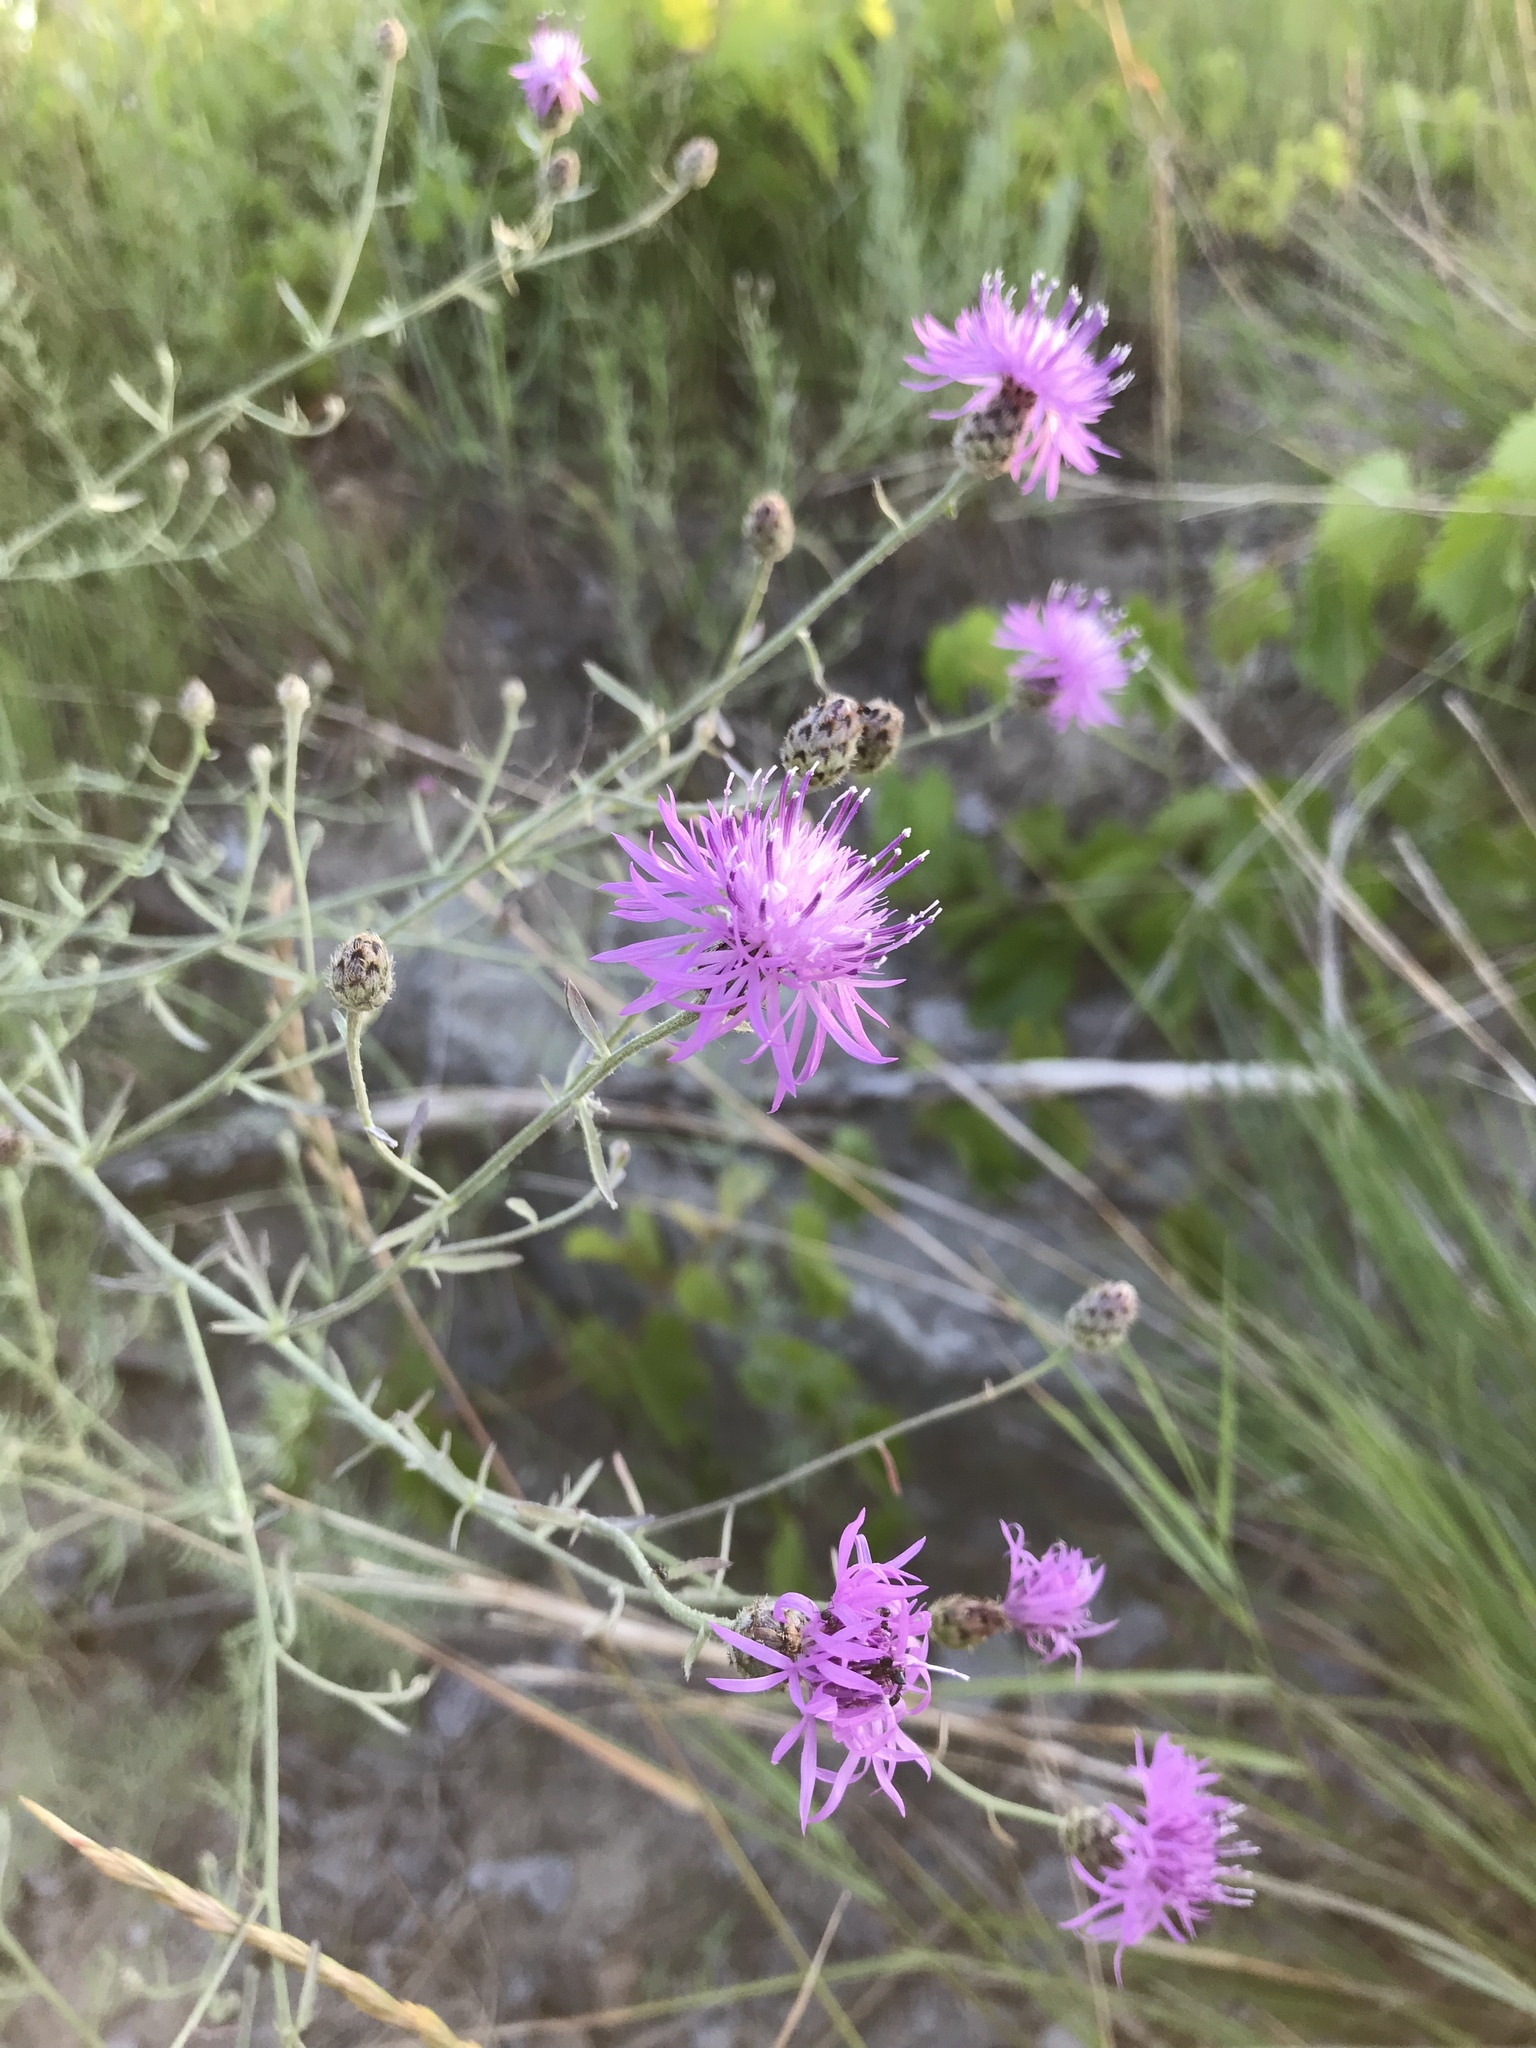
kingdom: Plantae
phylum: Tracheophyta
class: Magnoliopsida
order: Asterales
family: Asteraceae
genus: Centaurea
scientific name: Centaurea stoebe
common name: Spotted knapweed
